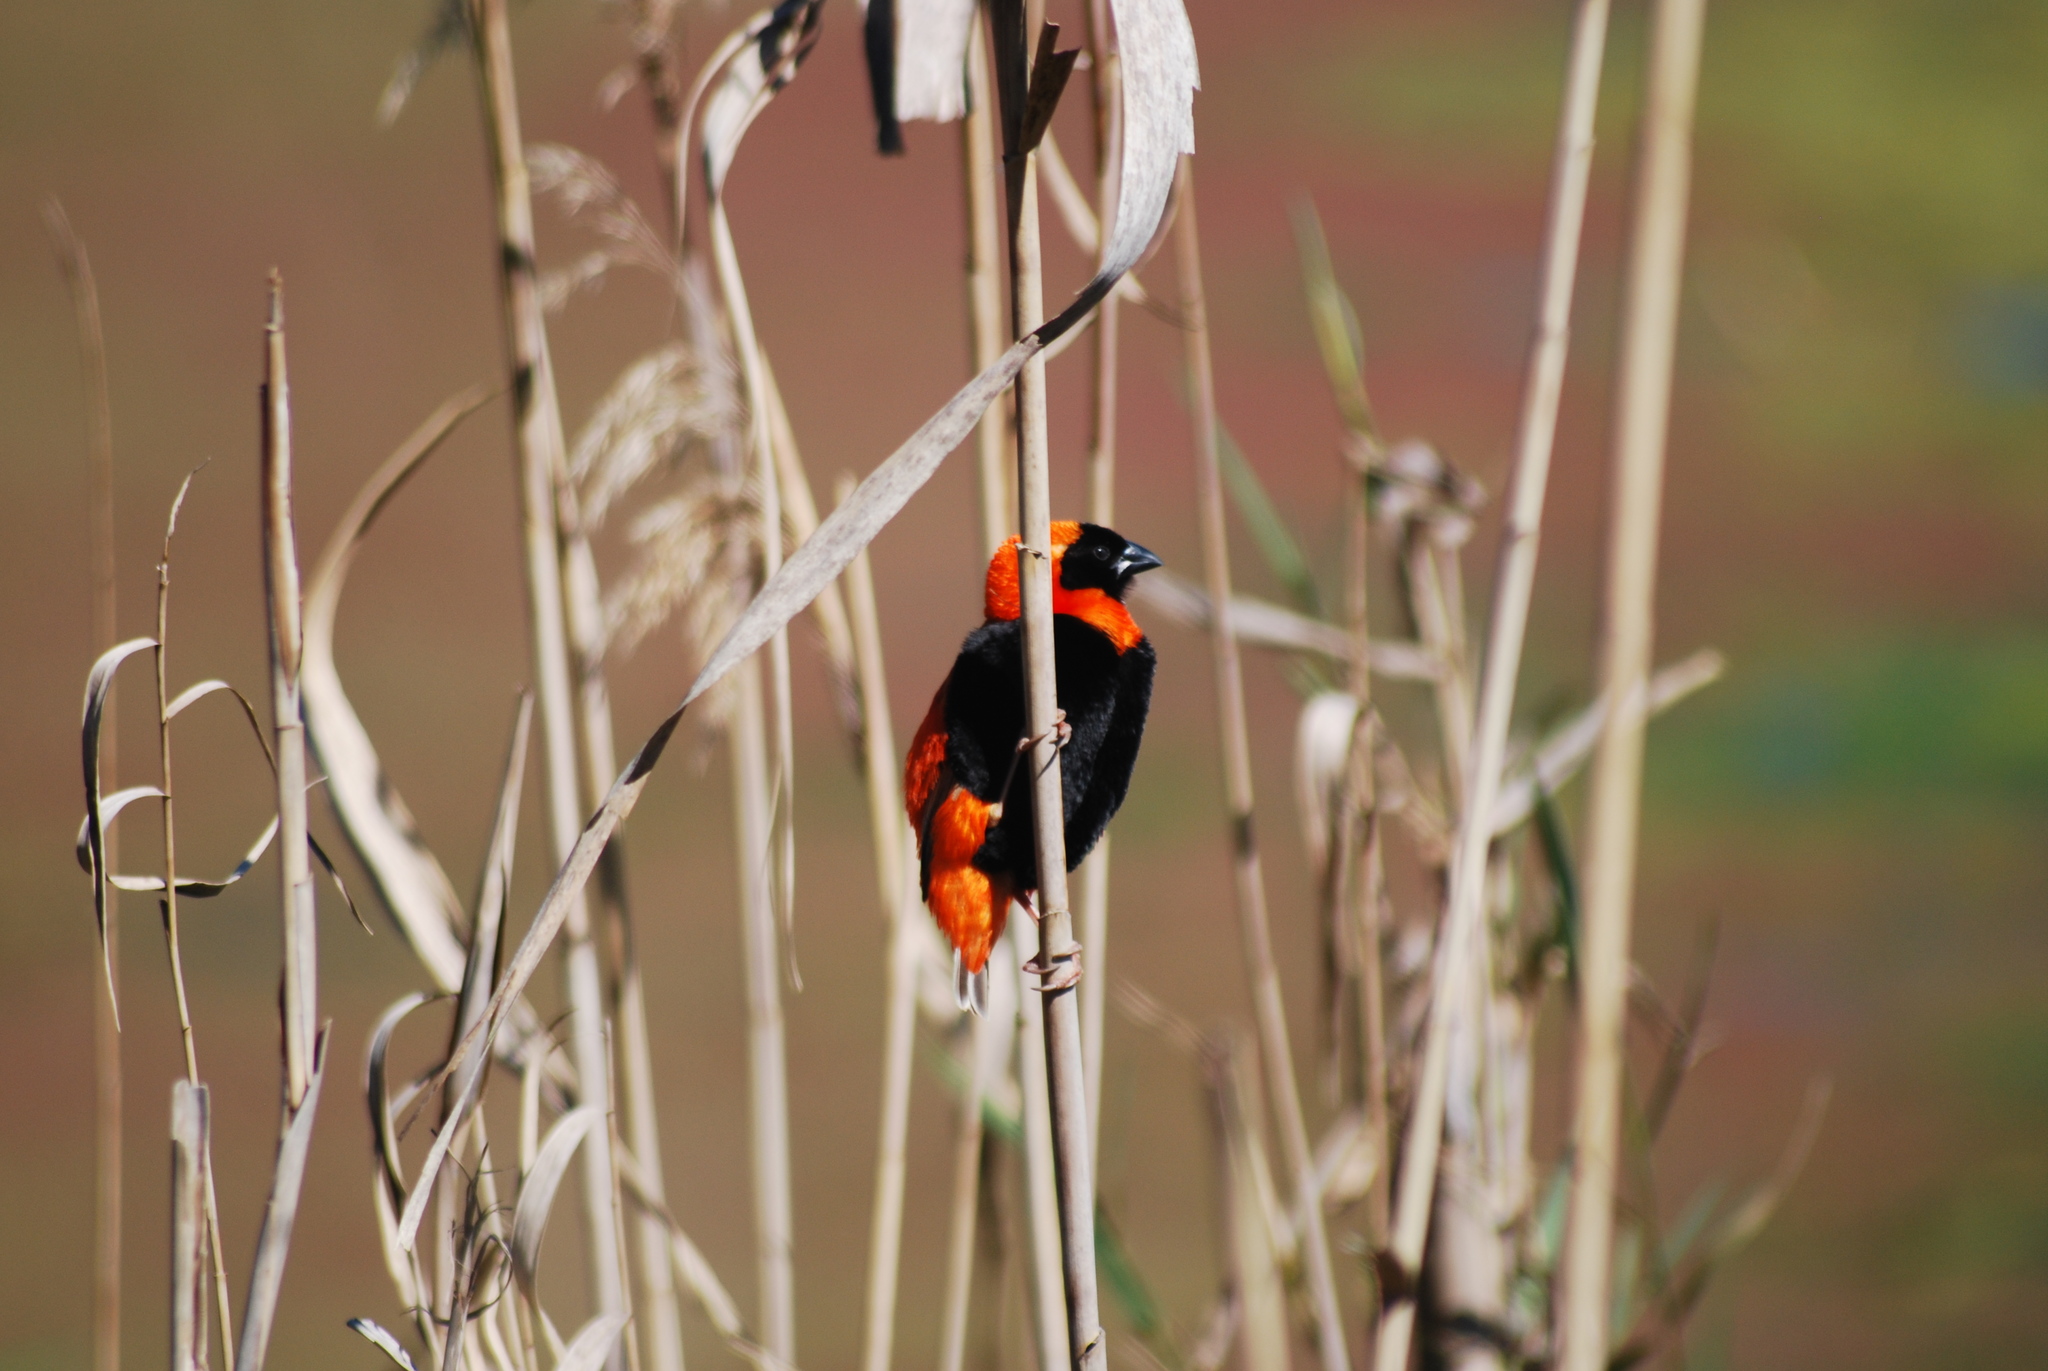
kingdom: Animalia
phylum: Chordata
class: Aves
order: Passeriformes
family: Ploceidae
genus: Euplectes
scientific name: Euplectes orix
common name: Southern red bishop
